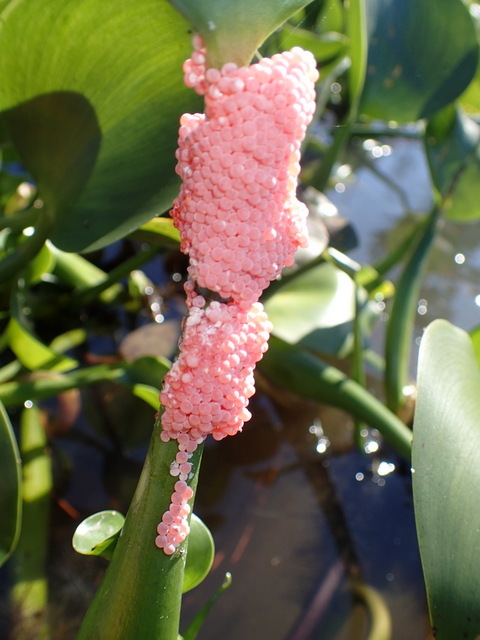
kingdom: Animalia
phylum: Mollusca
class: Gastropoda
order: Architaenioglossa
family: Ampullariidae
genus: Pomacea
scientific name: Pomacea maculata
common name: Giant applesnail
